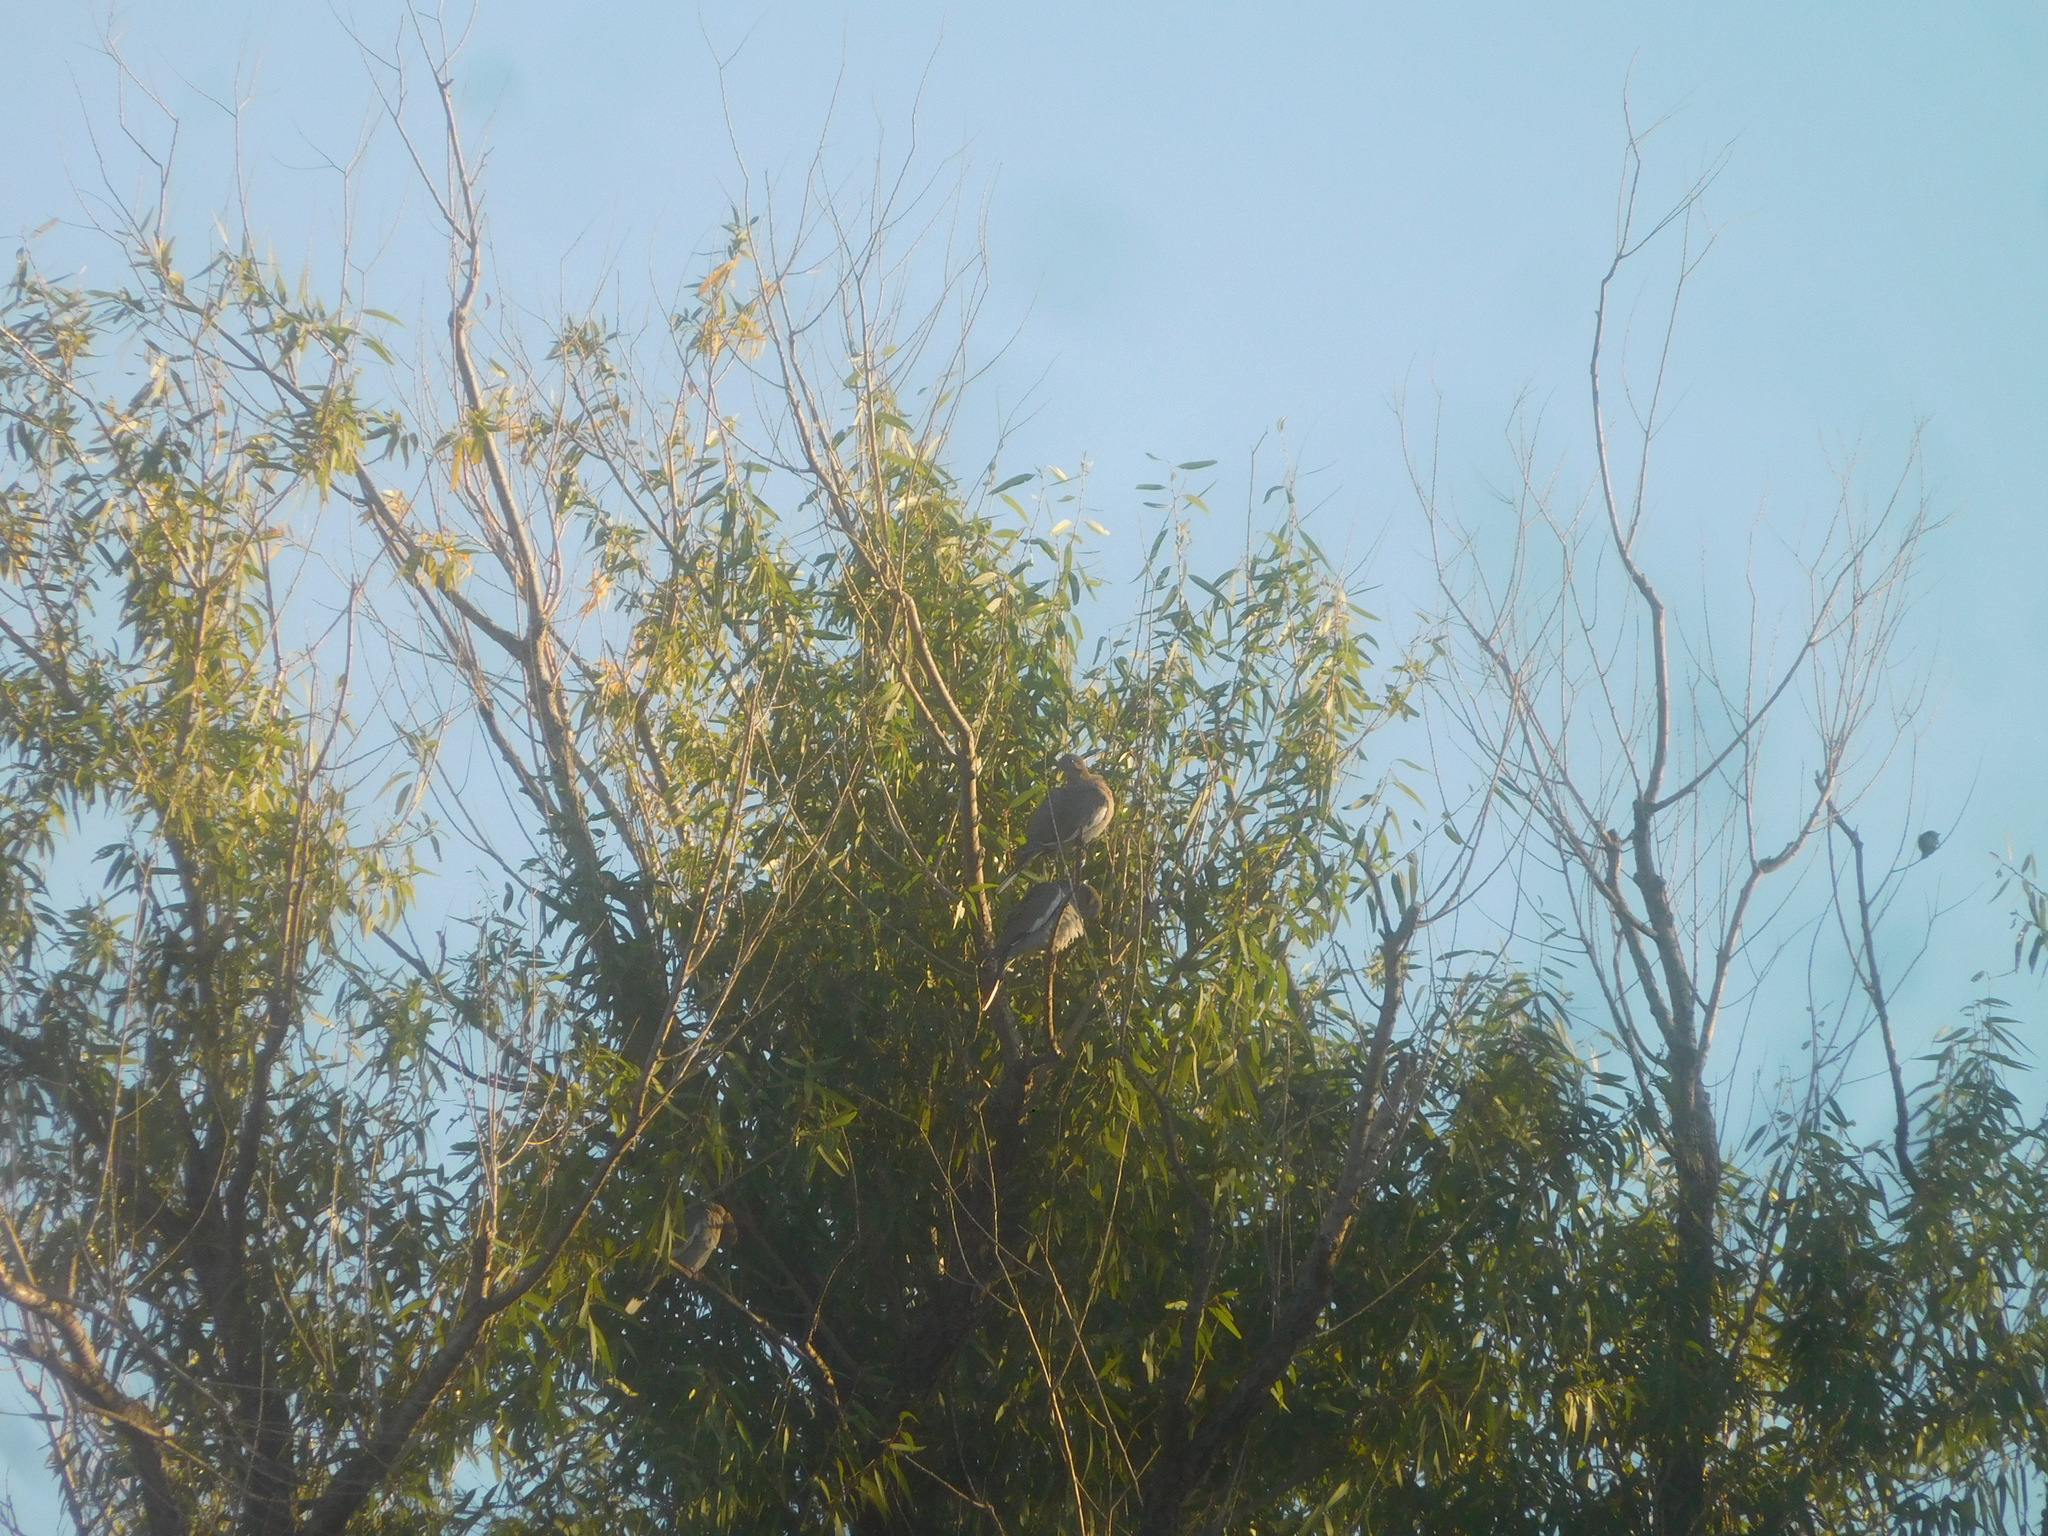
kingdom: Animalia
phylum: Chordata
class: Aves
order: Columbiformes
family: Columbidae
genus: Zenaida
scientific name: Zenaida asiatica
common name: White-winged dove
